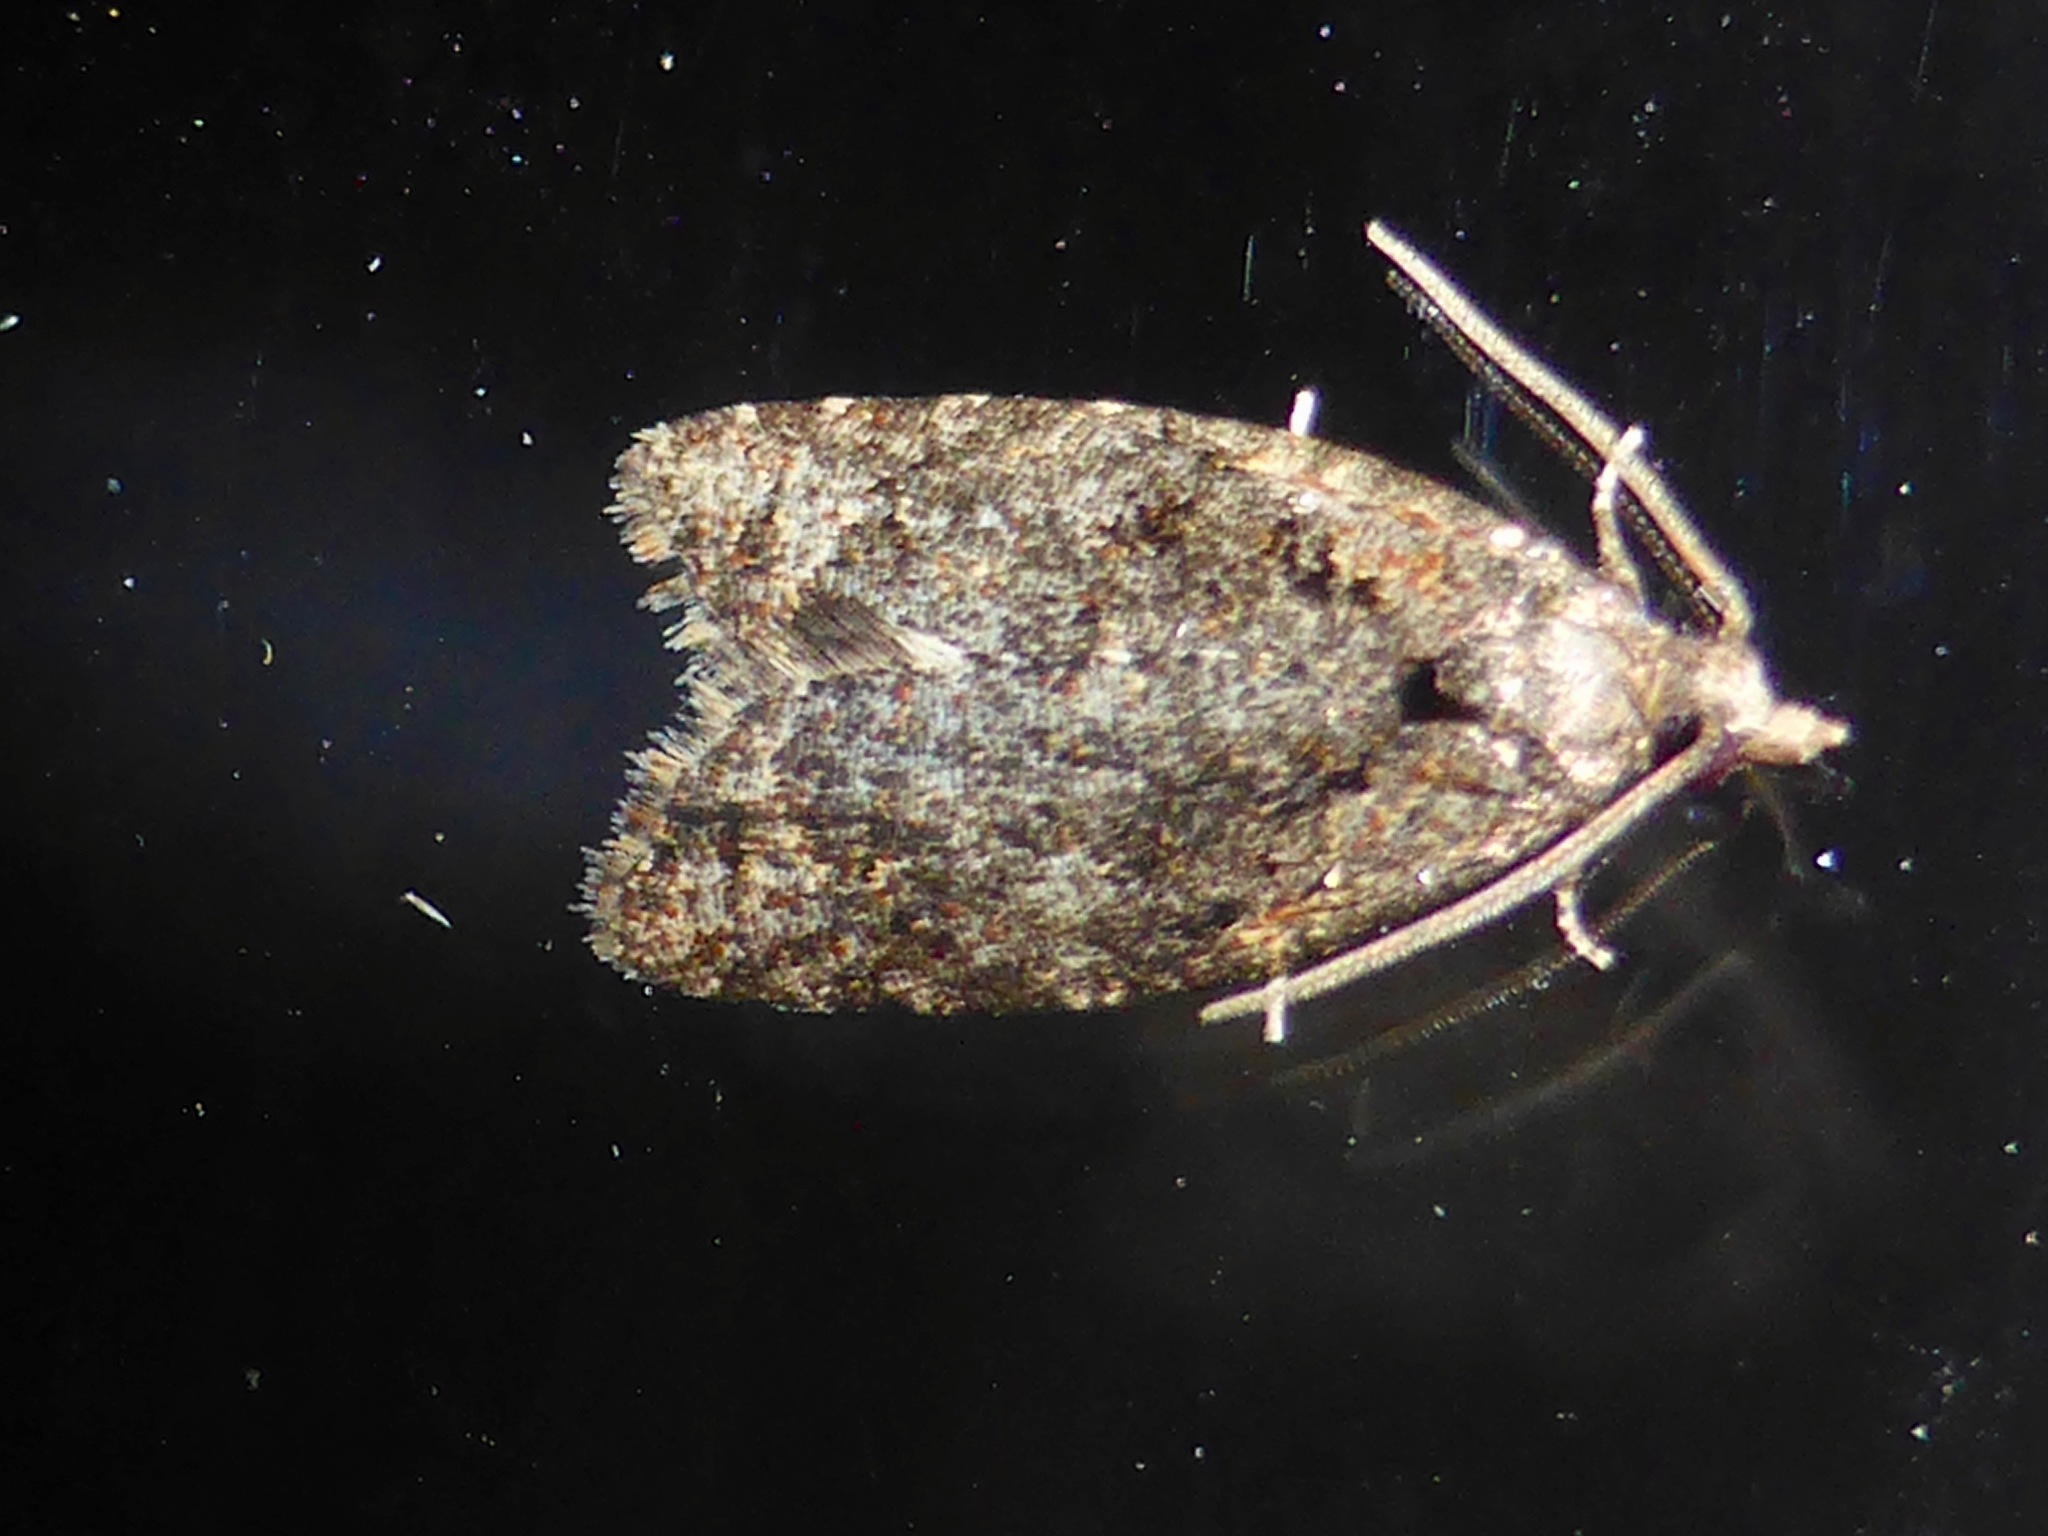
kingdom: Animalia
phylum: Arthropoda
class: Insecta
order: Lepidoptera
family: Tortricidae
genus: Capua
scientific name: Capua intractana
